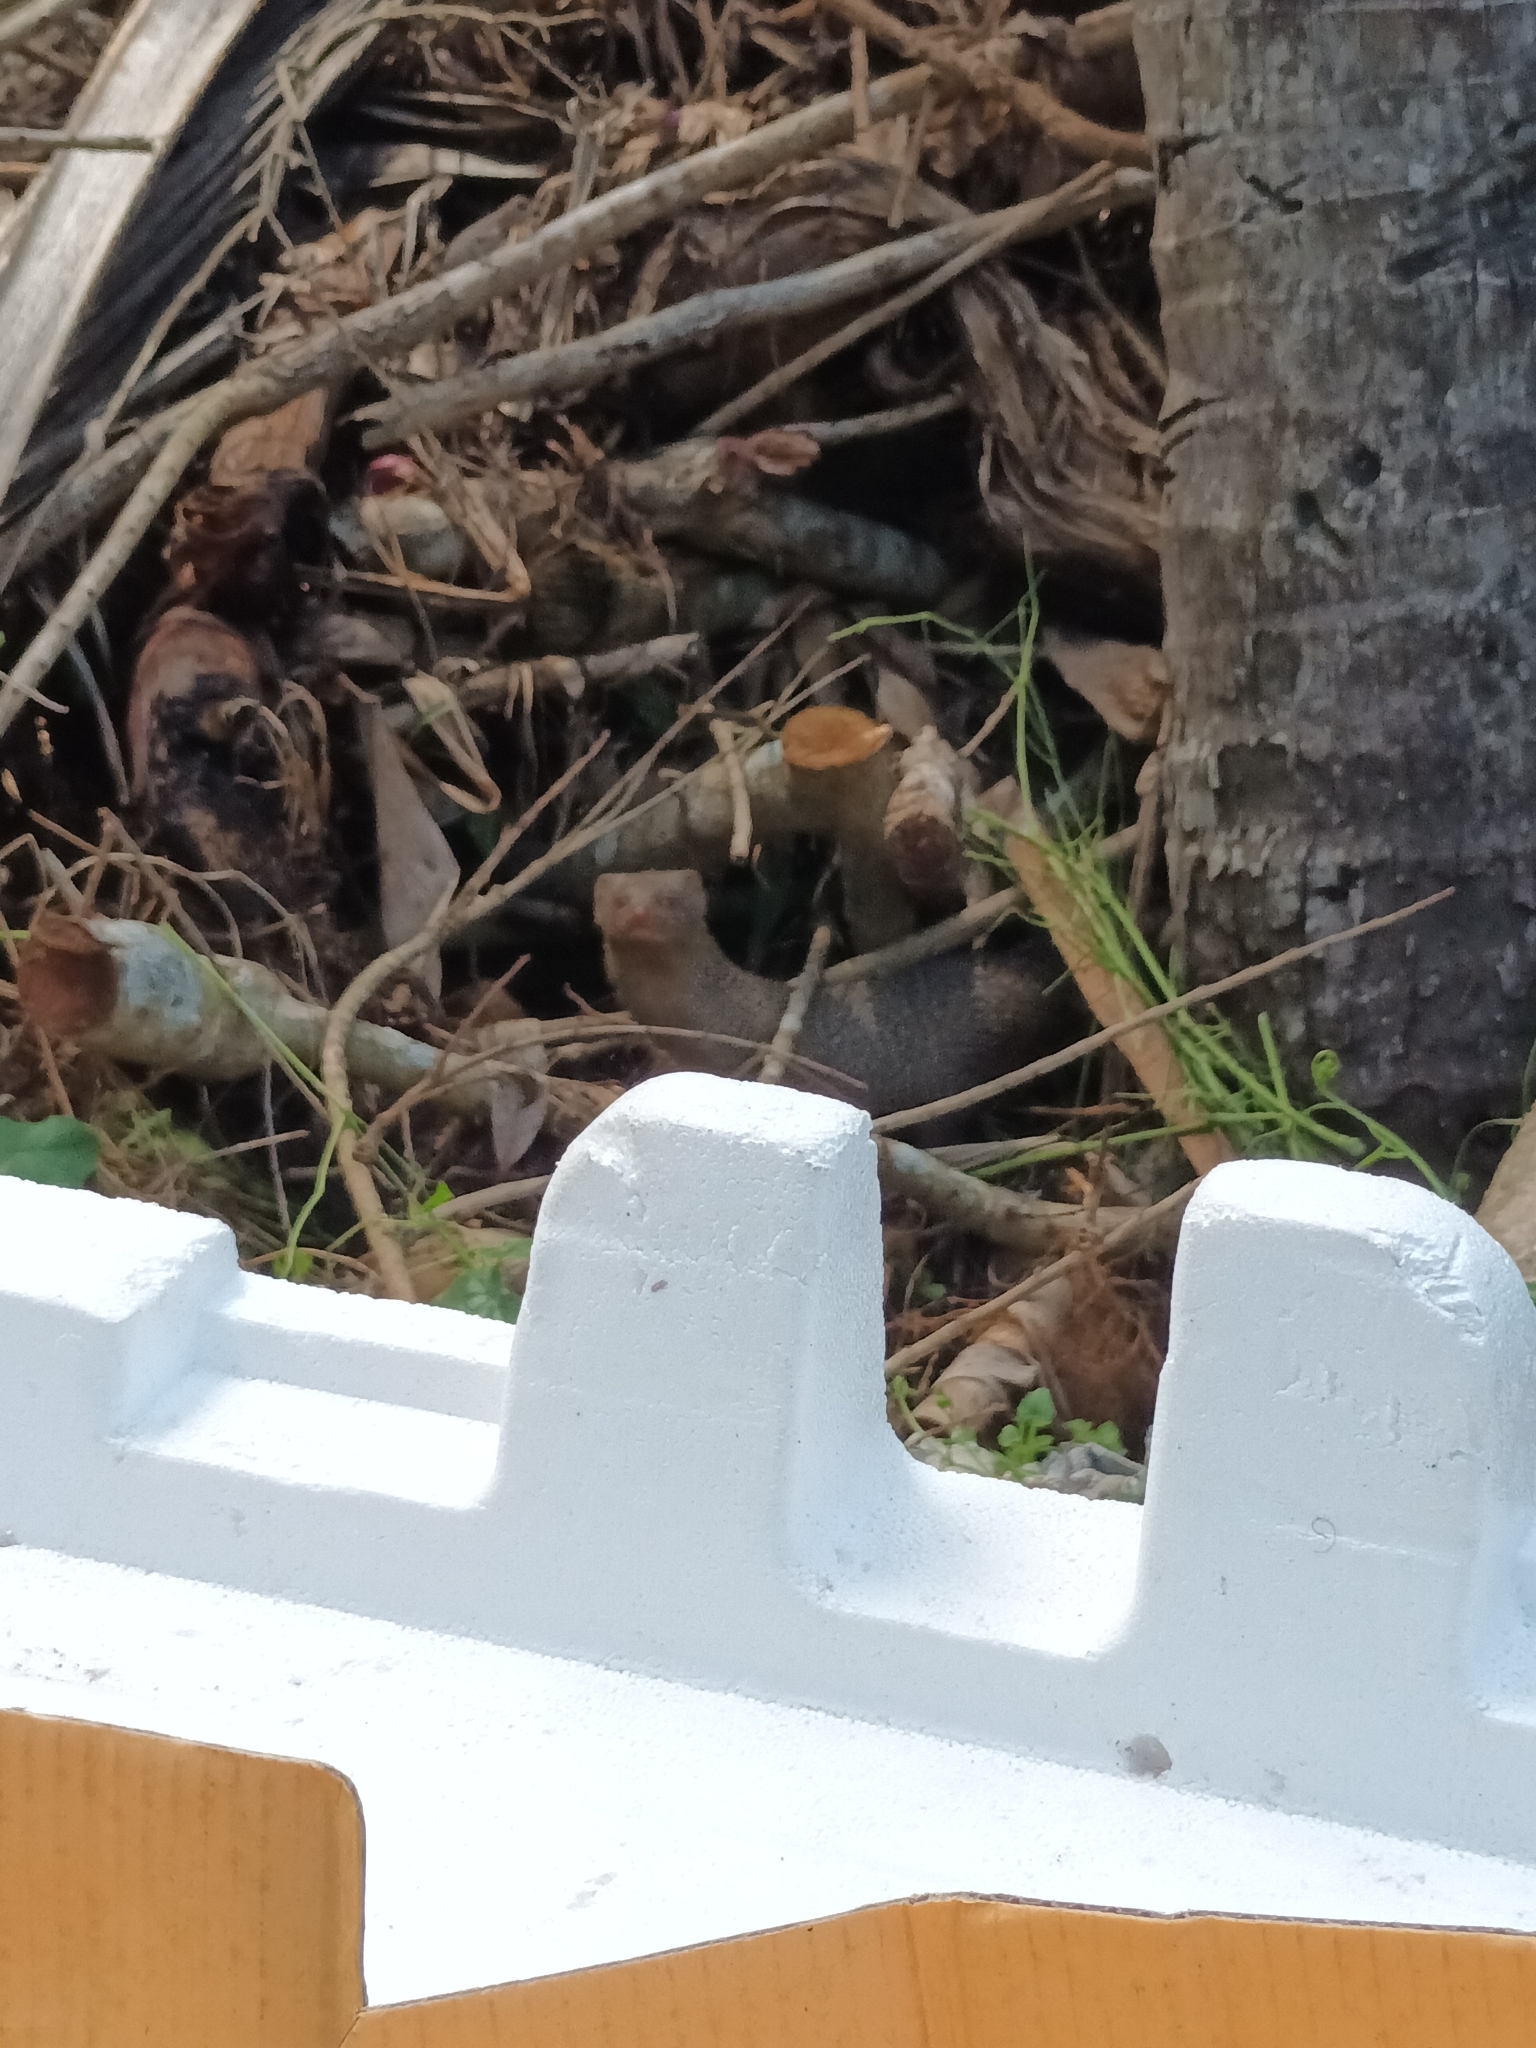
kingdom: Animalia
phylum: Chordata
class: Mammalia
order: Carnivora
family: Herpestidae
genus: Herpestes
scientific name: Herpestes edwardsi
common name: Indian gray mongoose
